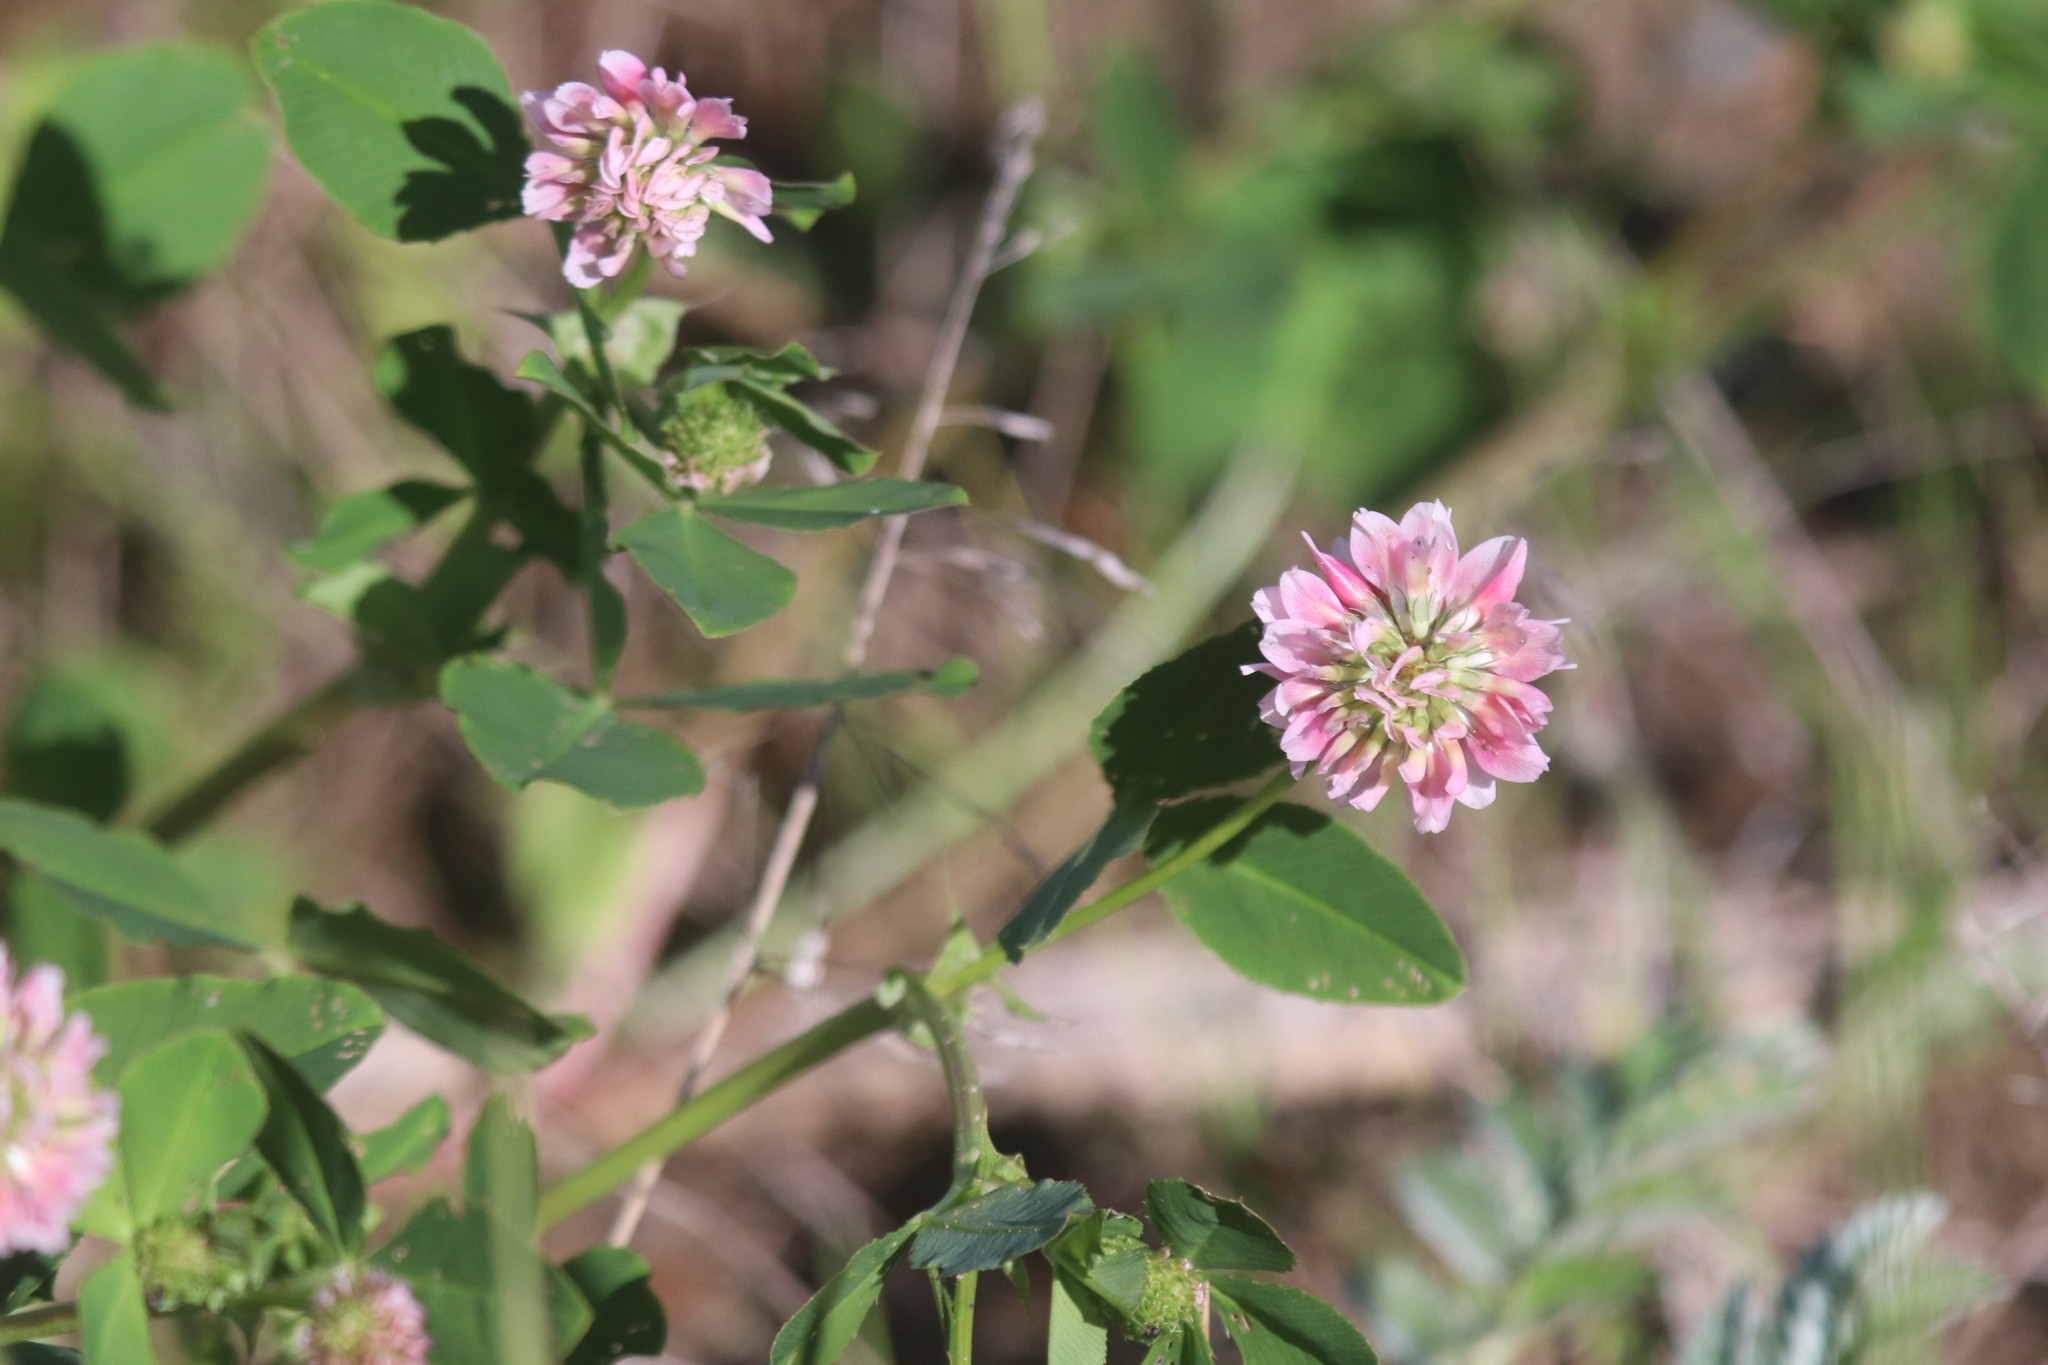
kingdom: Plantae
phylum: Tracheophyta
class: Magnoliopsida
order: Fabales
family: Fabaceae
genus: Trifolium
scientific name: Trifolium hybridum
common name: Alsike clover
